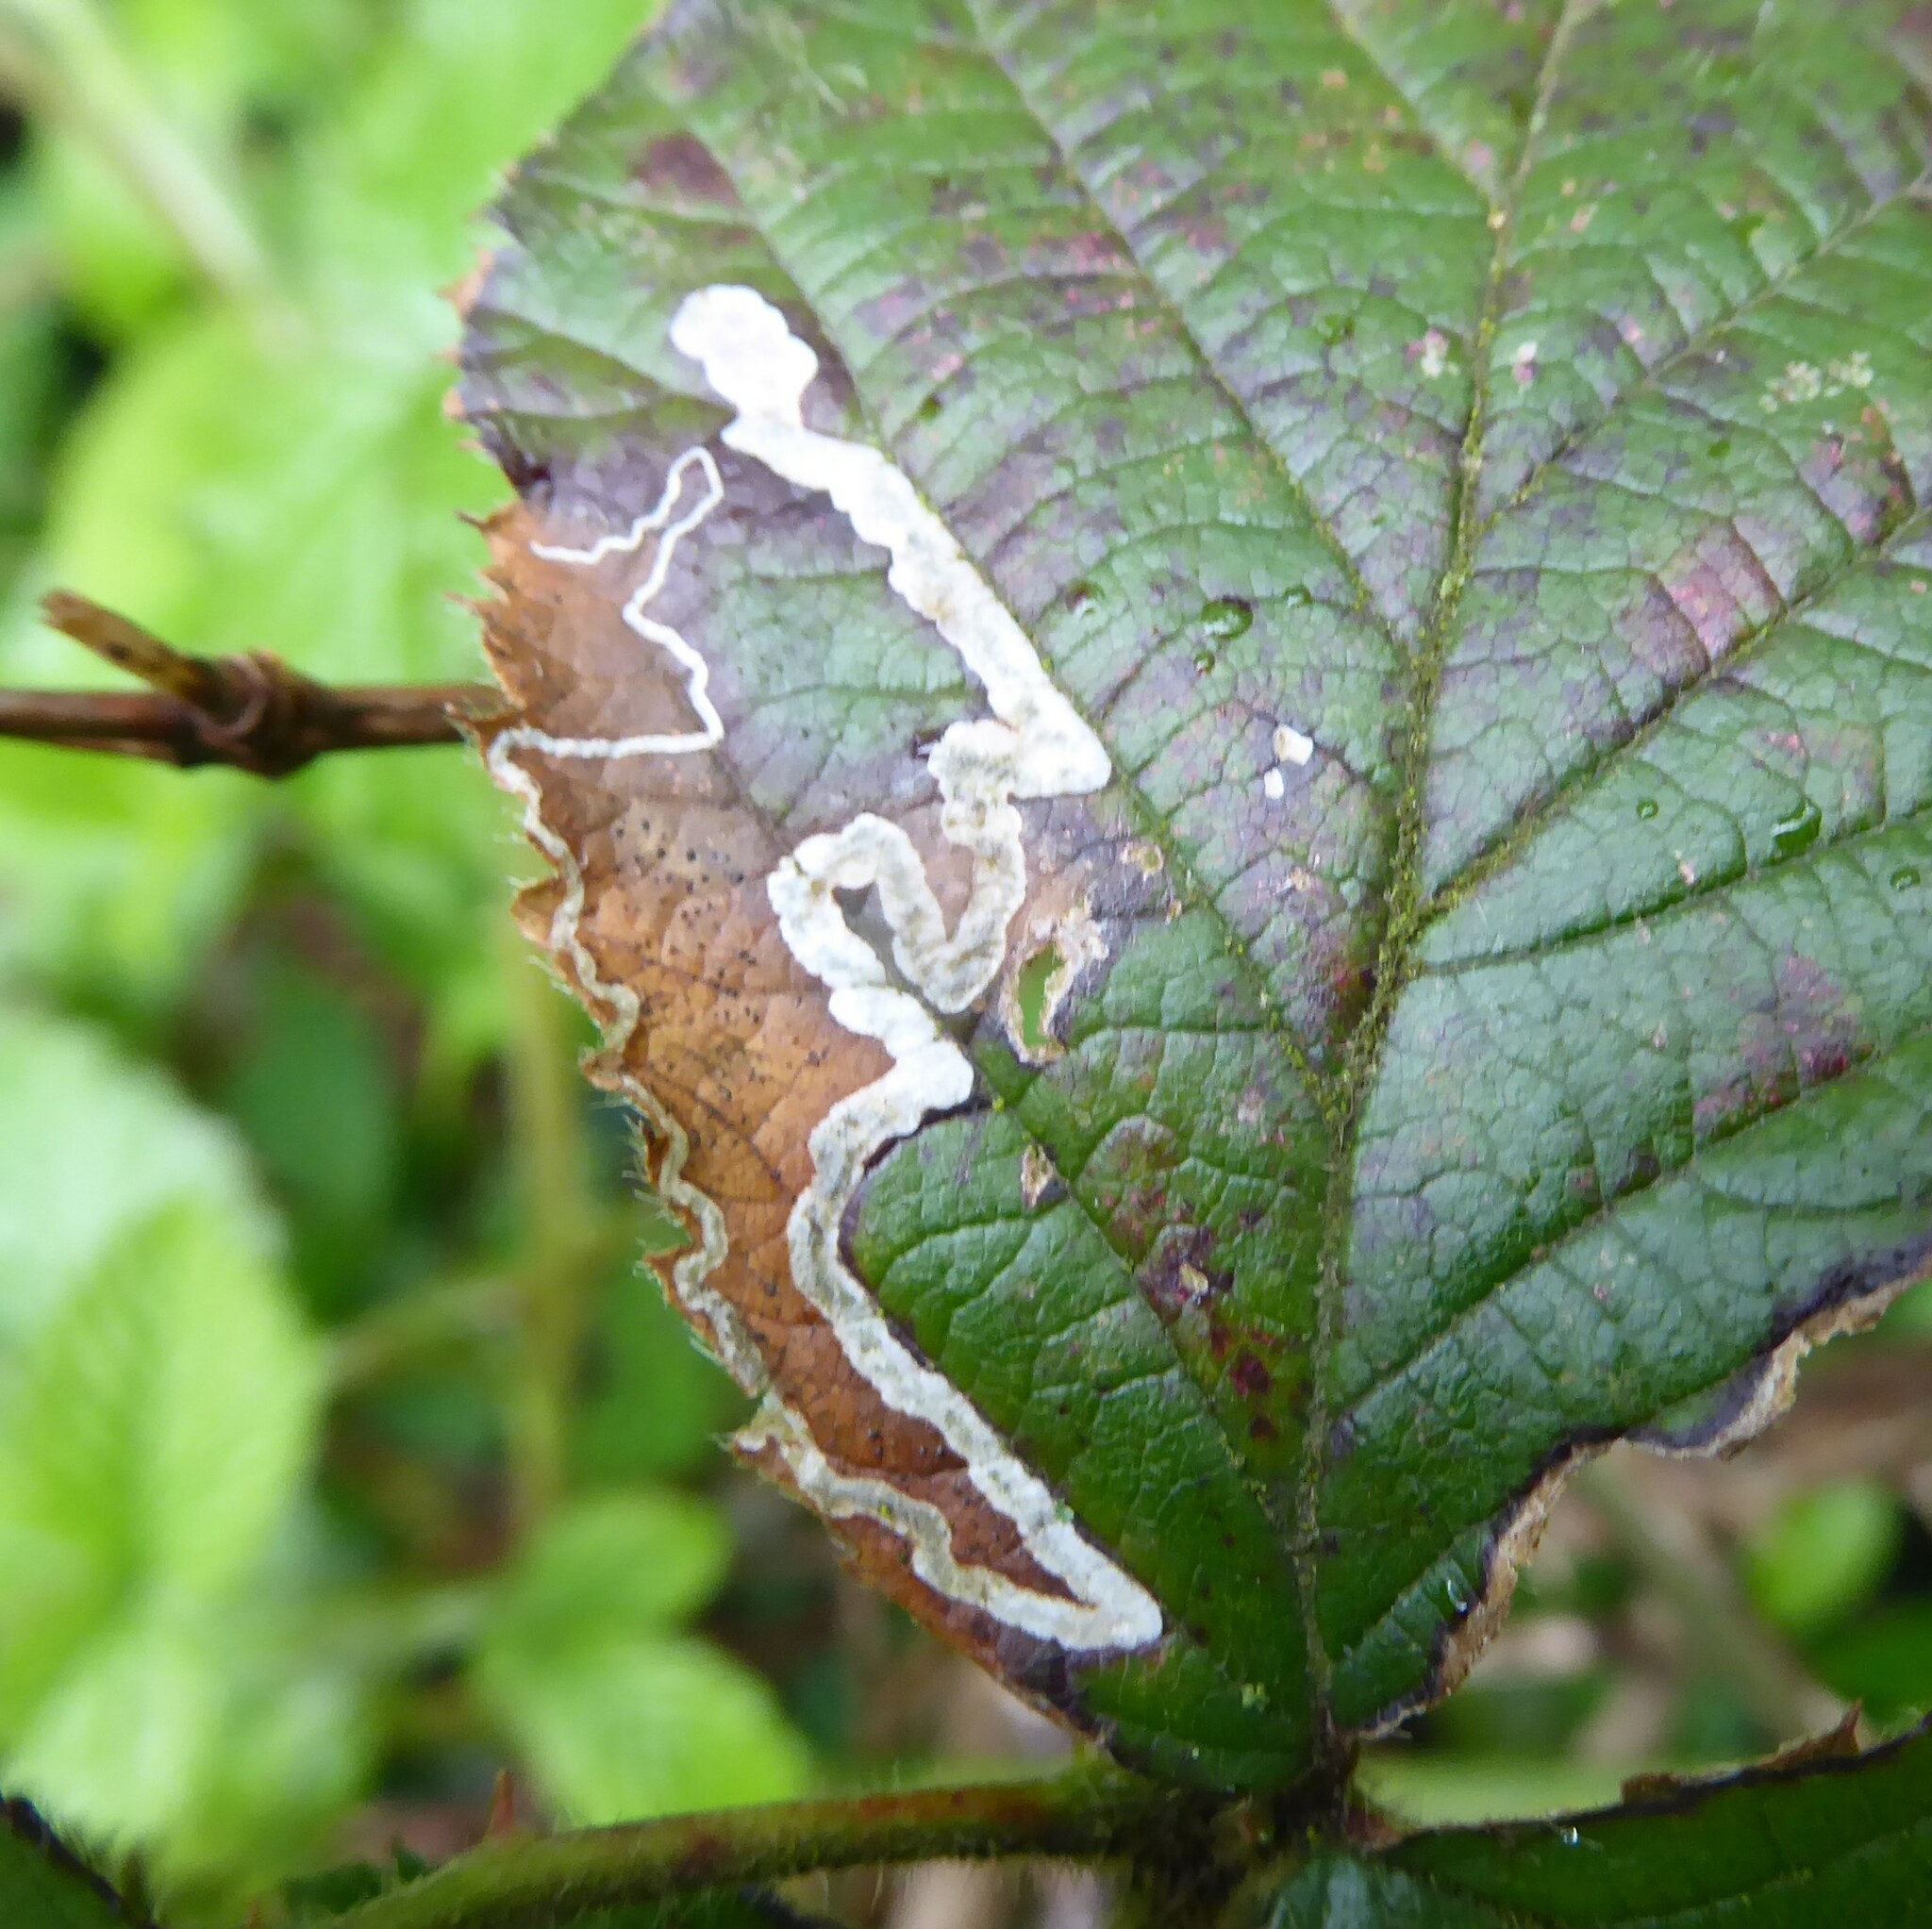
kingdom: Animalia
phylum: Arthropoda
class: Insecta
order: Lepidoptera
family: Nepticulidae
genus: Stigmella
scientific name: Stigmella aurella
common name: Golden pigmy
